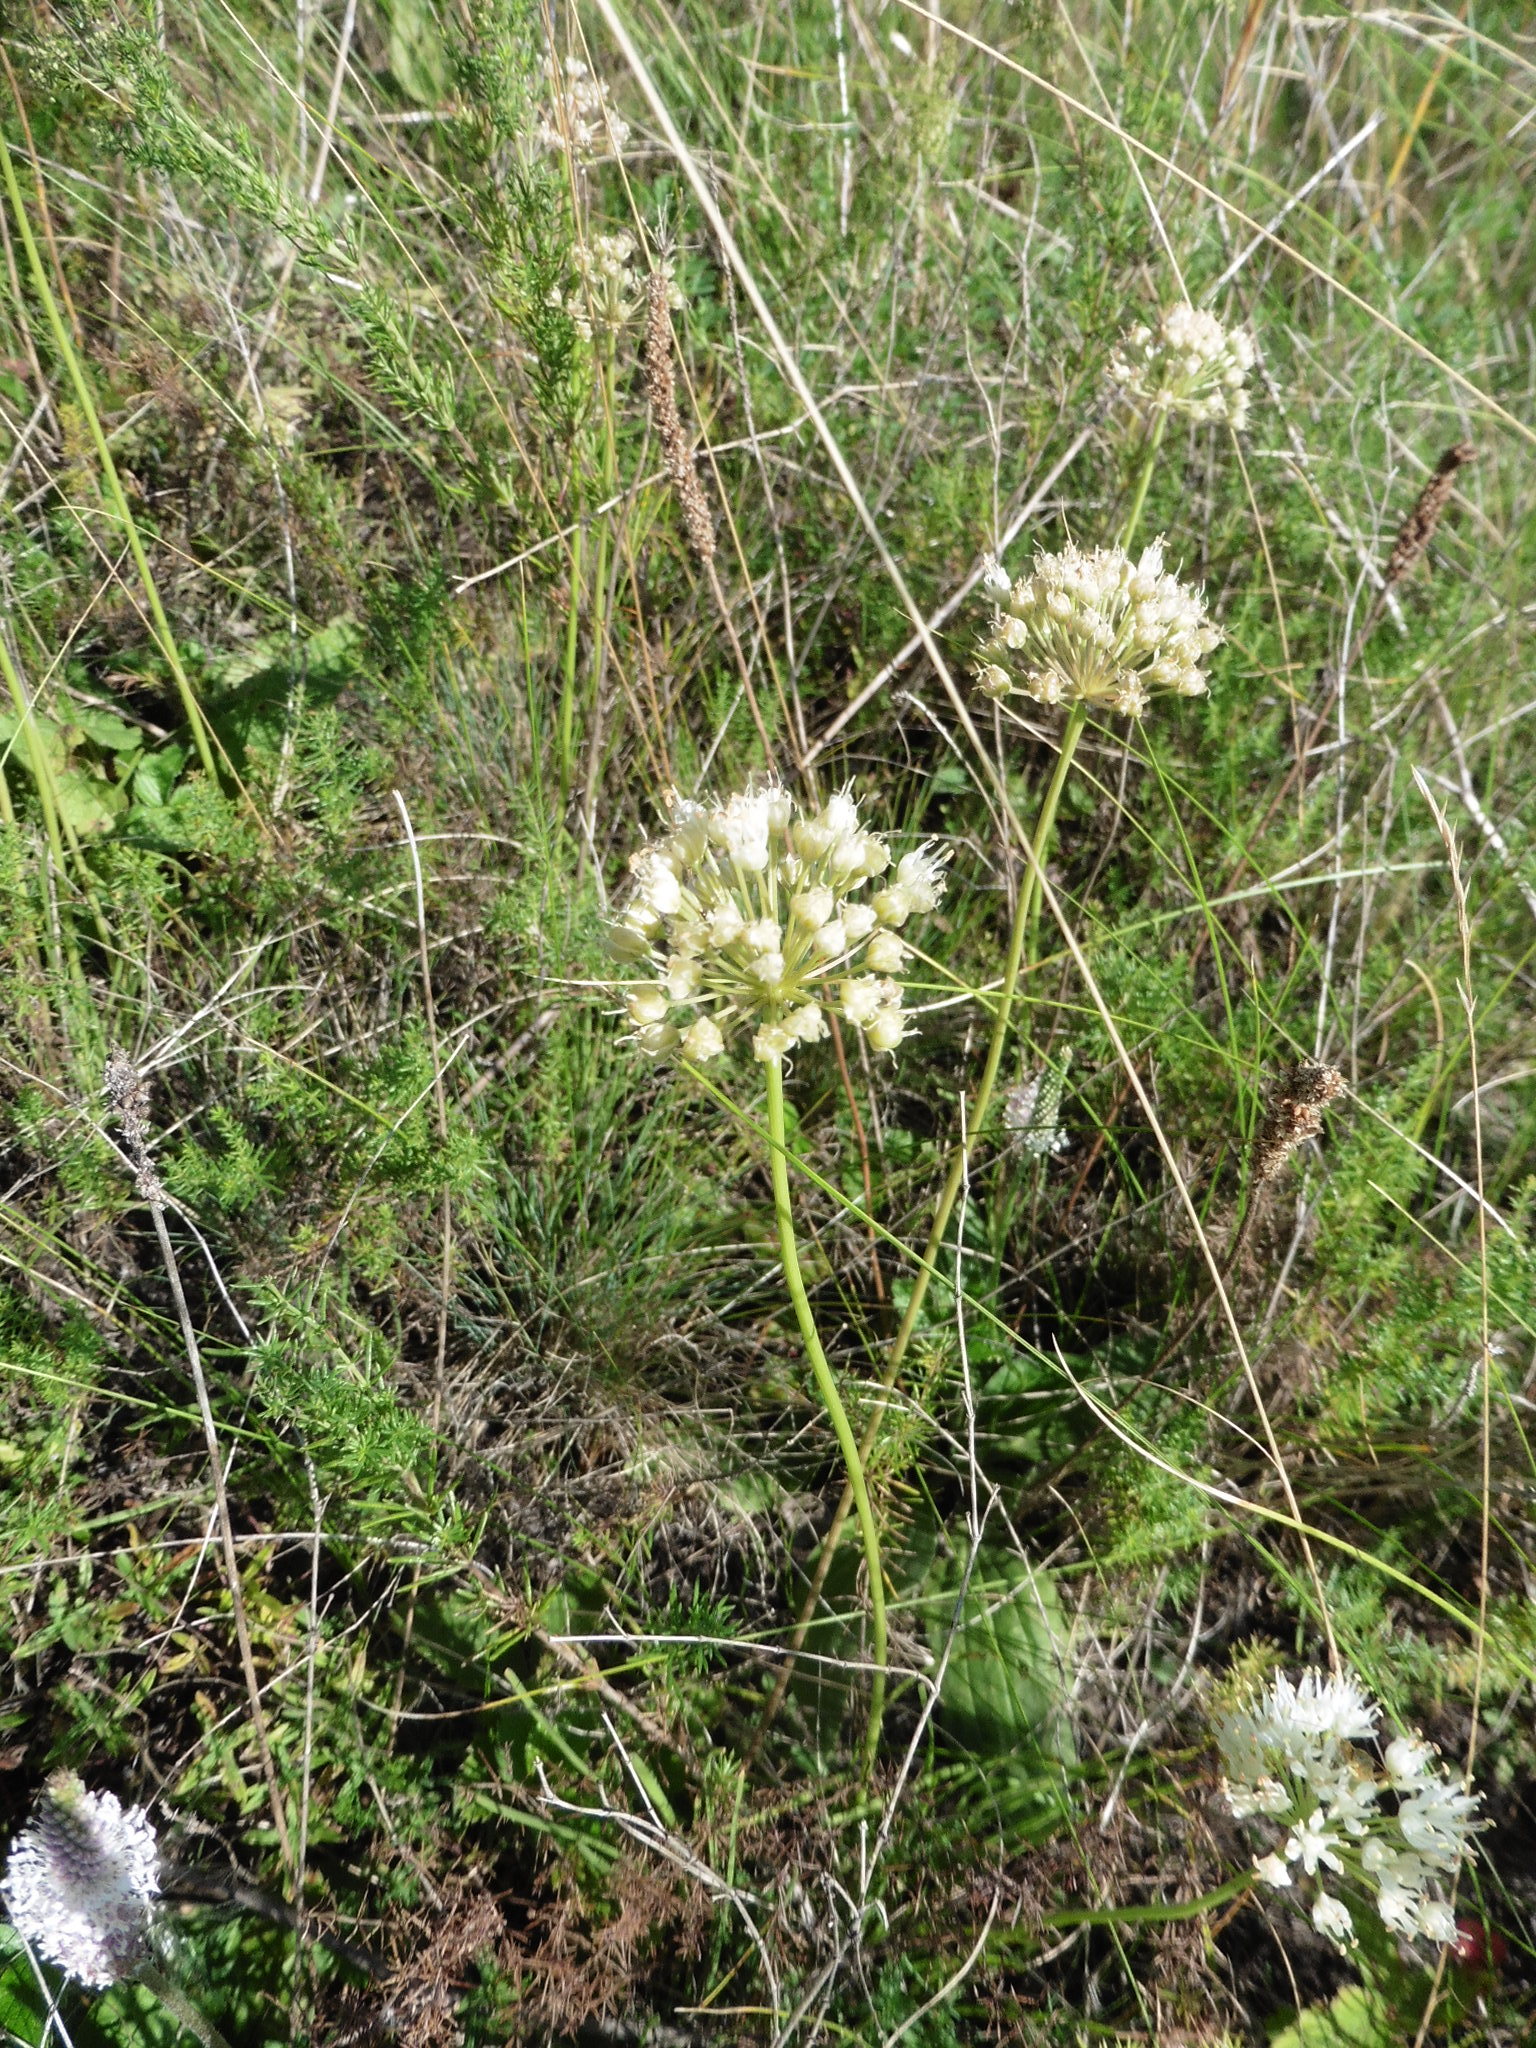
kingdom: Plantae
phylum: Tracheophyta
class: Liliopsida
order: Asparagales
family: Amaryllidaceae
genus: Allium
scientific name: Allium flavescens
